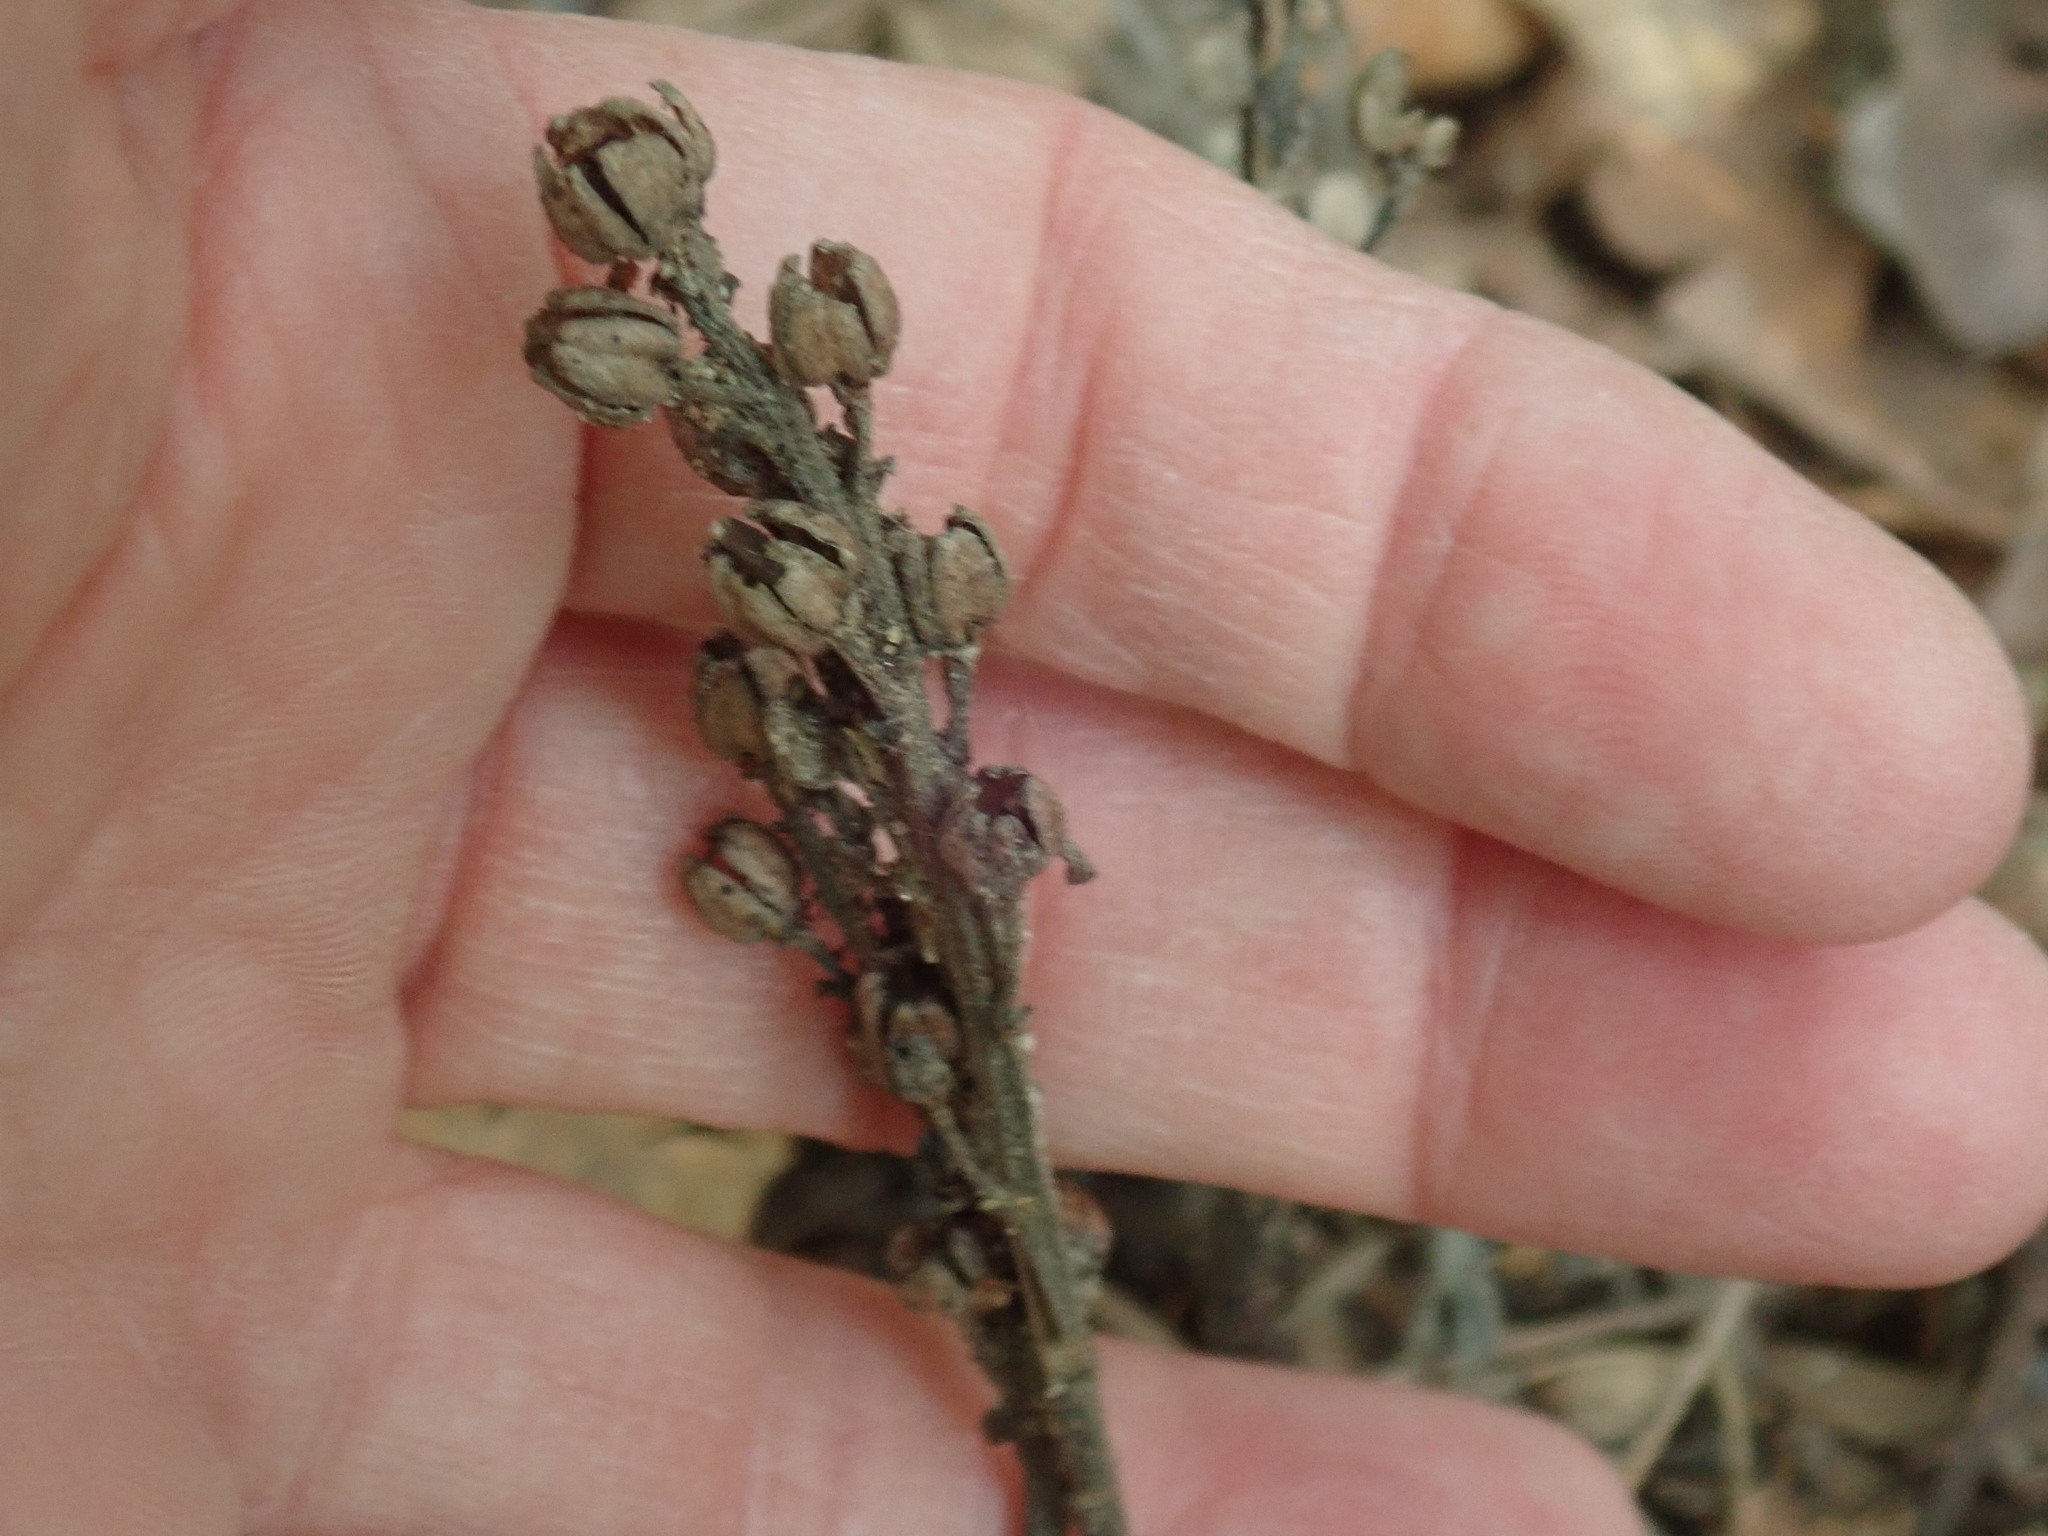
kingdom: Plantae
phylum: Tracheophyta
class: Magnoliopsida
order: Ericales
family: Ericaceae
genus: Hypopitys
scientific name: Hypopitys monotropa
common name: Yellow bird's-nest
